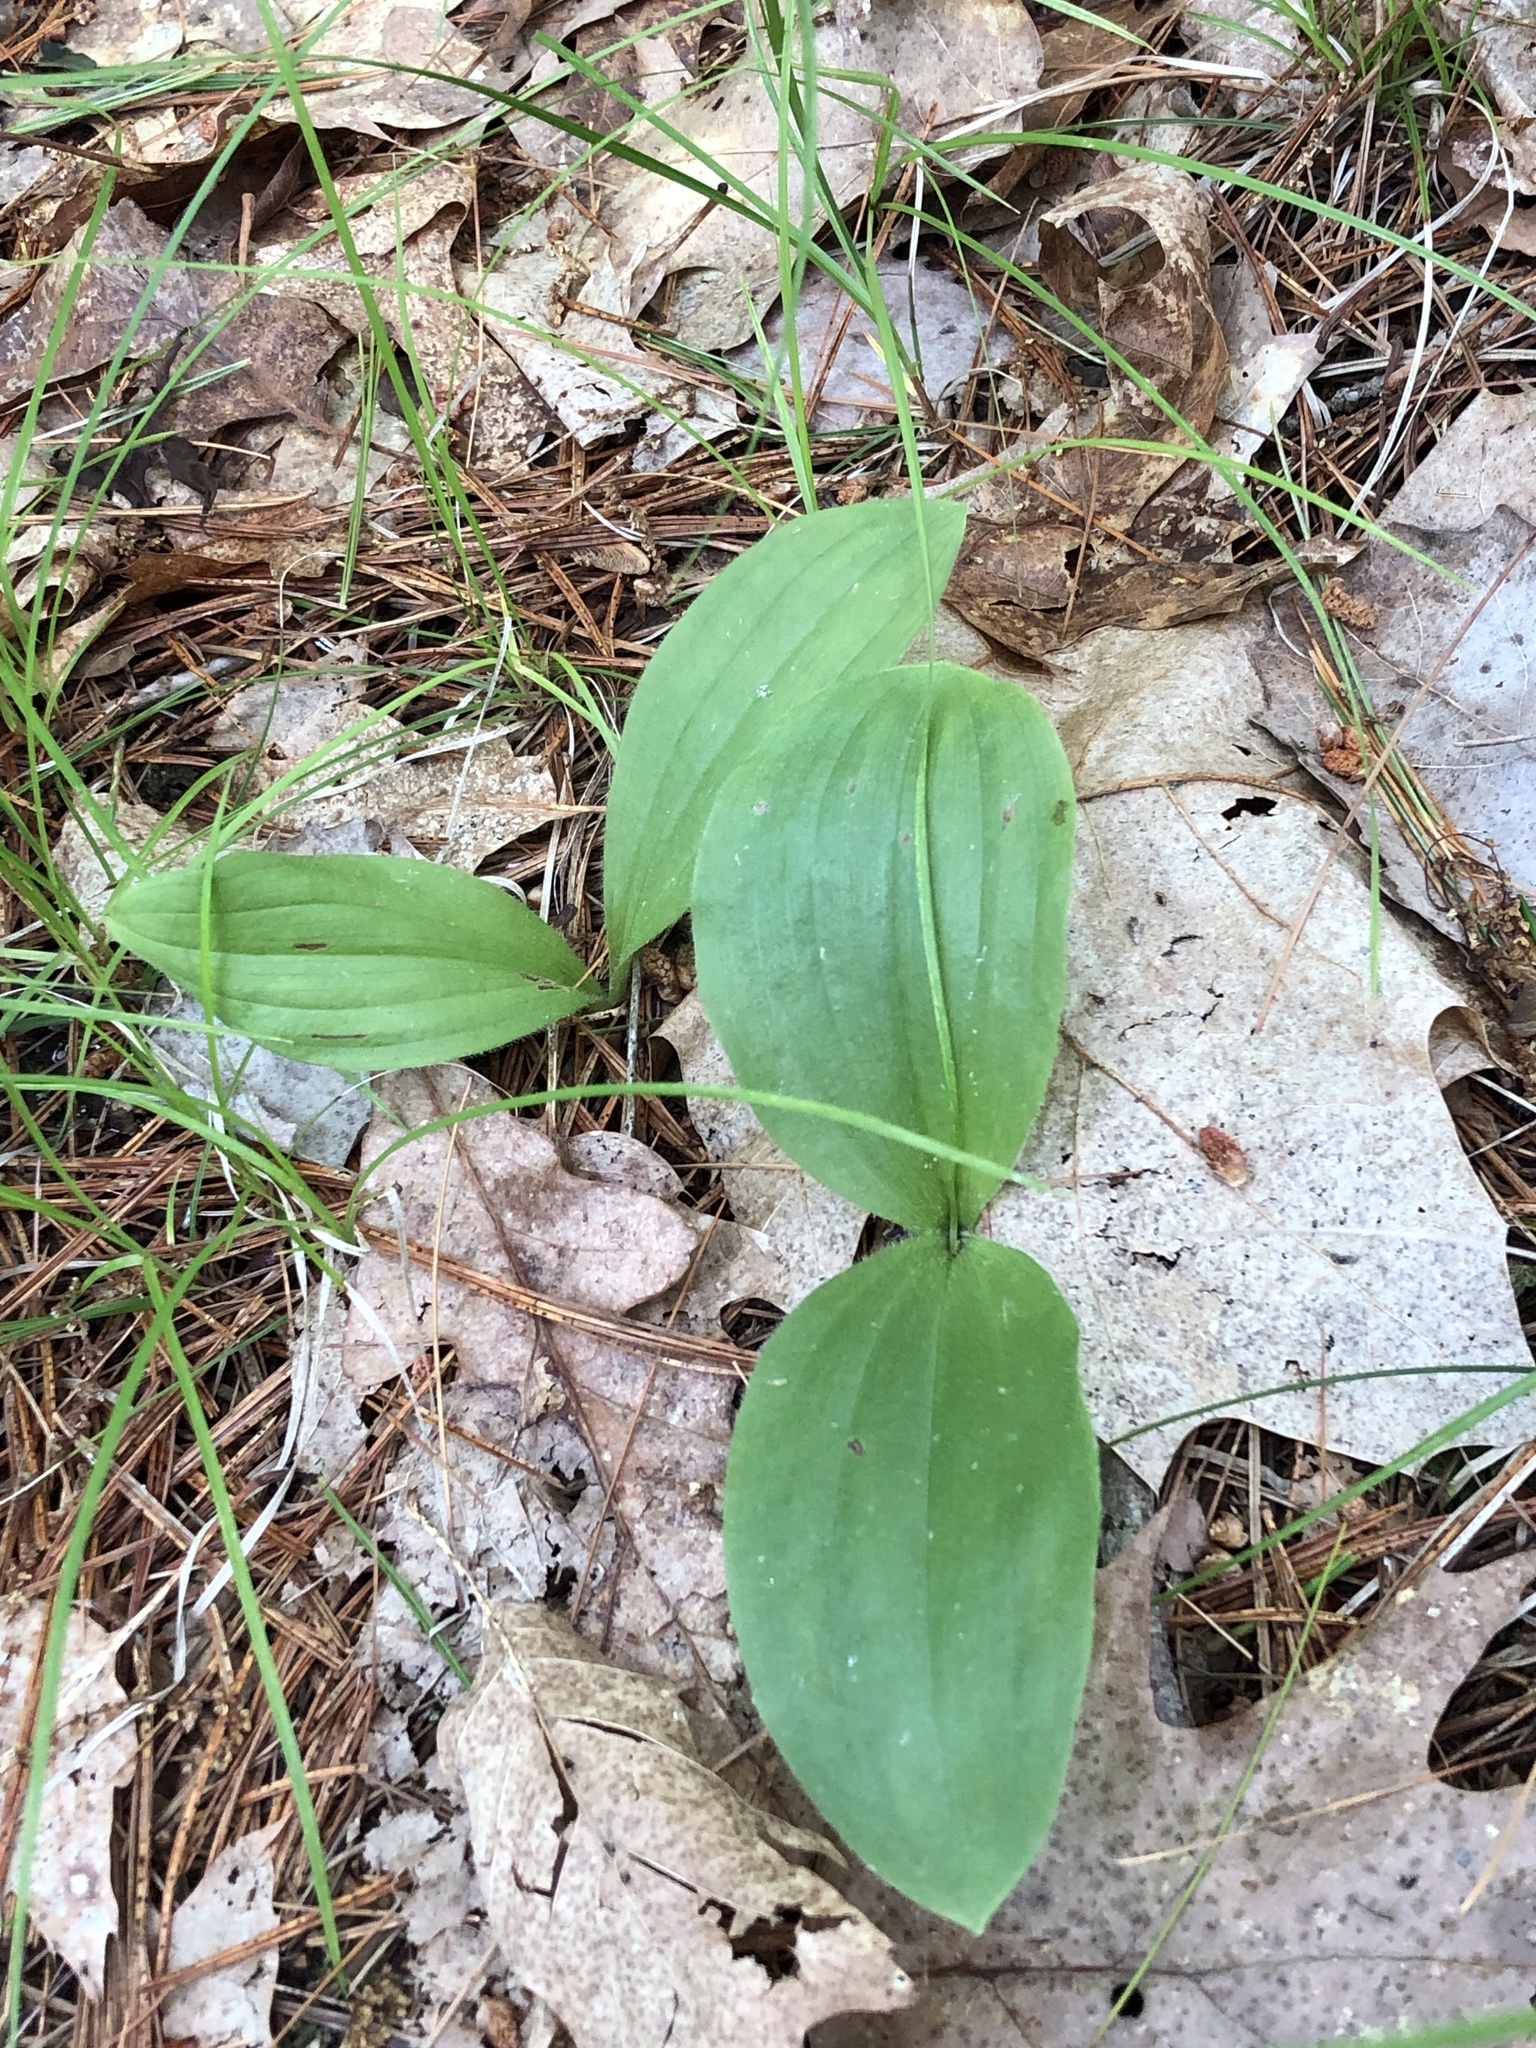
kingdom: Plantae
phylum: Tracheophyta
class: Liliopsida
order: Asparagales
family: Orchidaceae
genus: Cypripedium
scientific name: Cypripedium acaule
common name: Pink lady's-slipper
